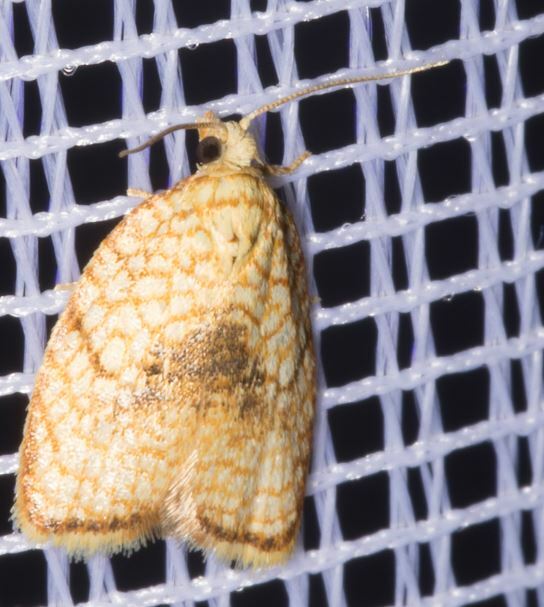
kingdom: Animalia
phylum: Arthropoda
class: Insecta
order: Lepidoptera
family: Tortricidae
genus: Acleris
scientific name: Acleris forsskaleana
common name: Maple button
